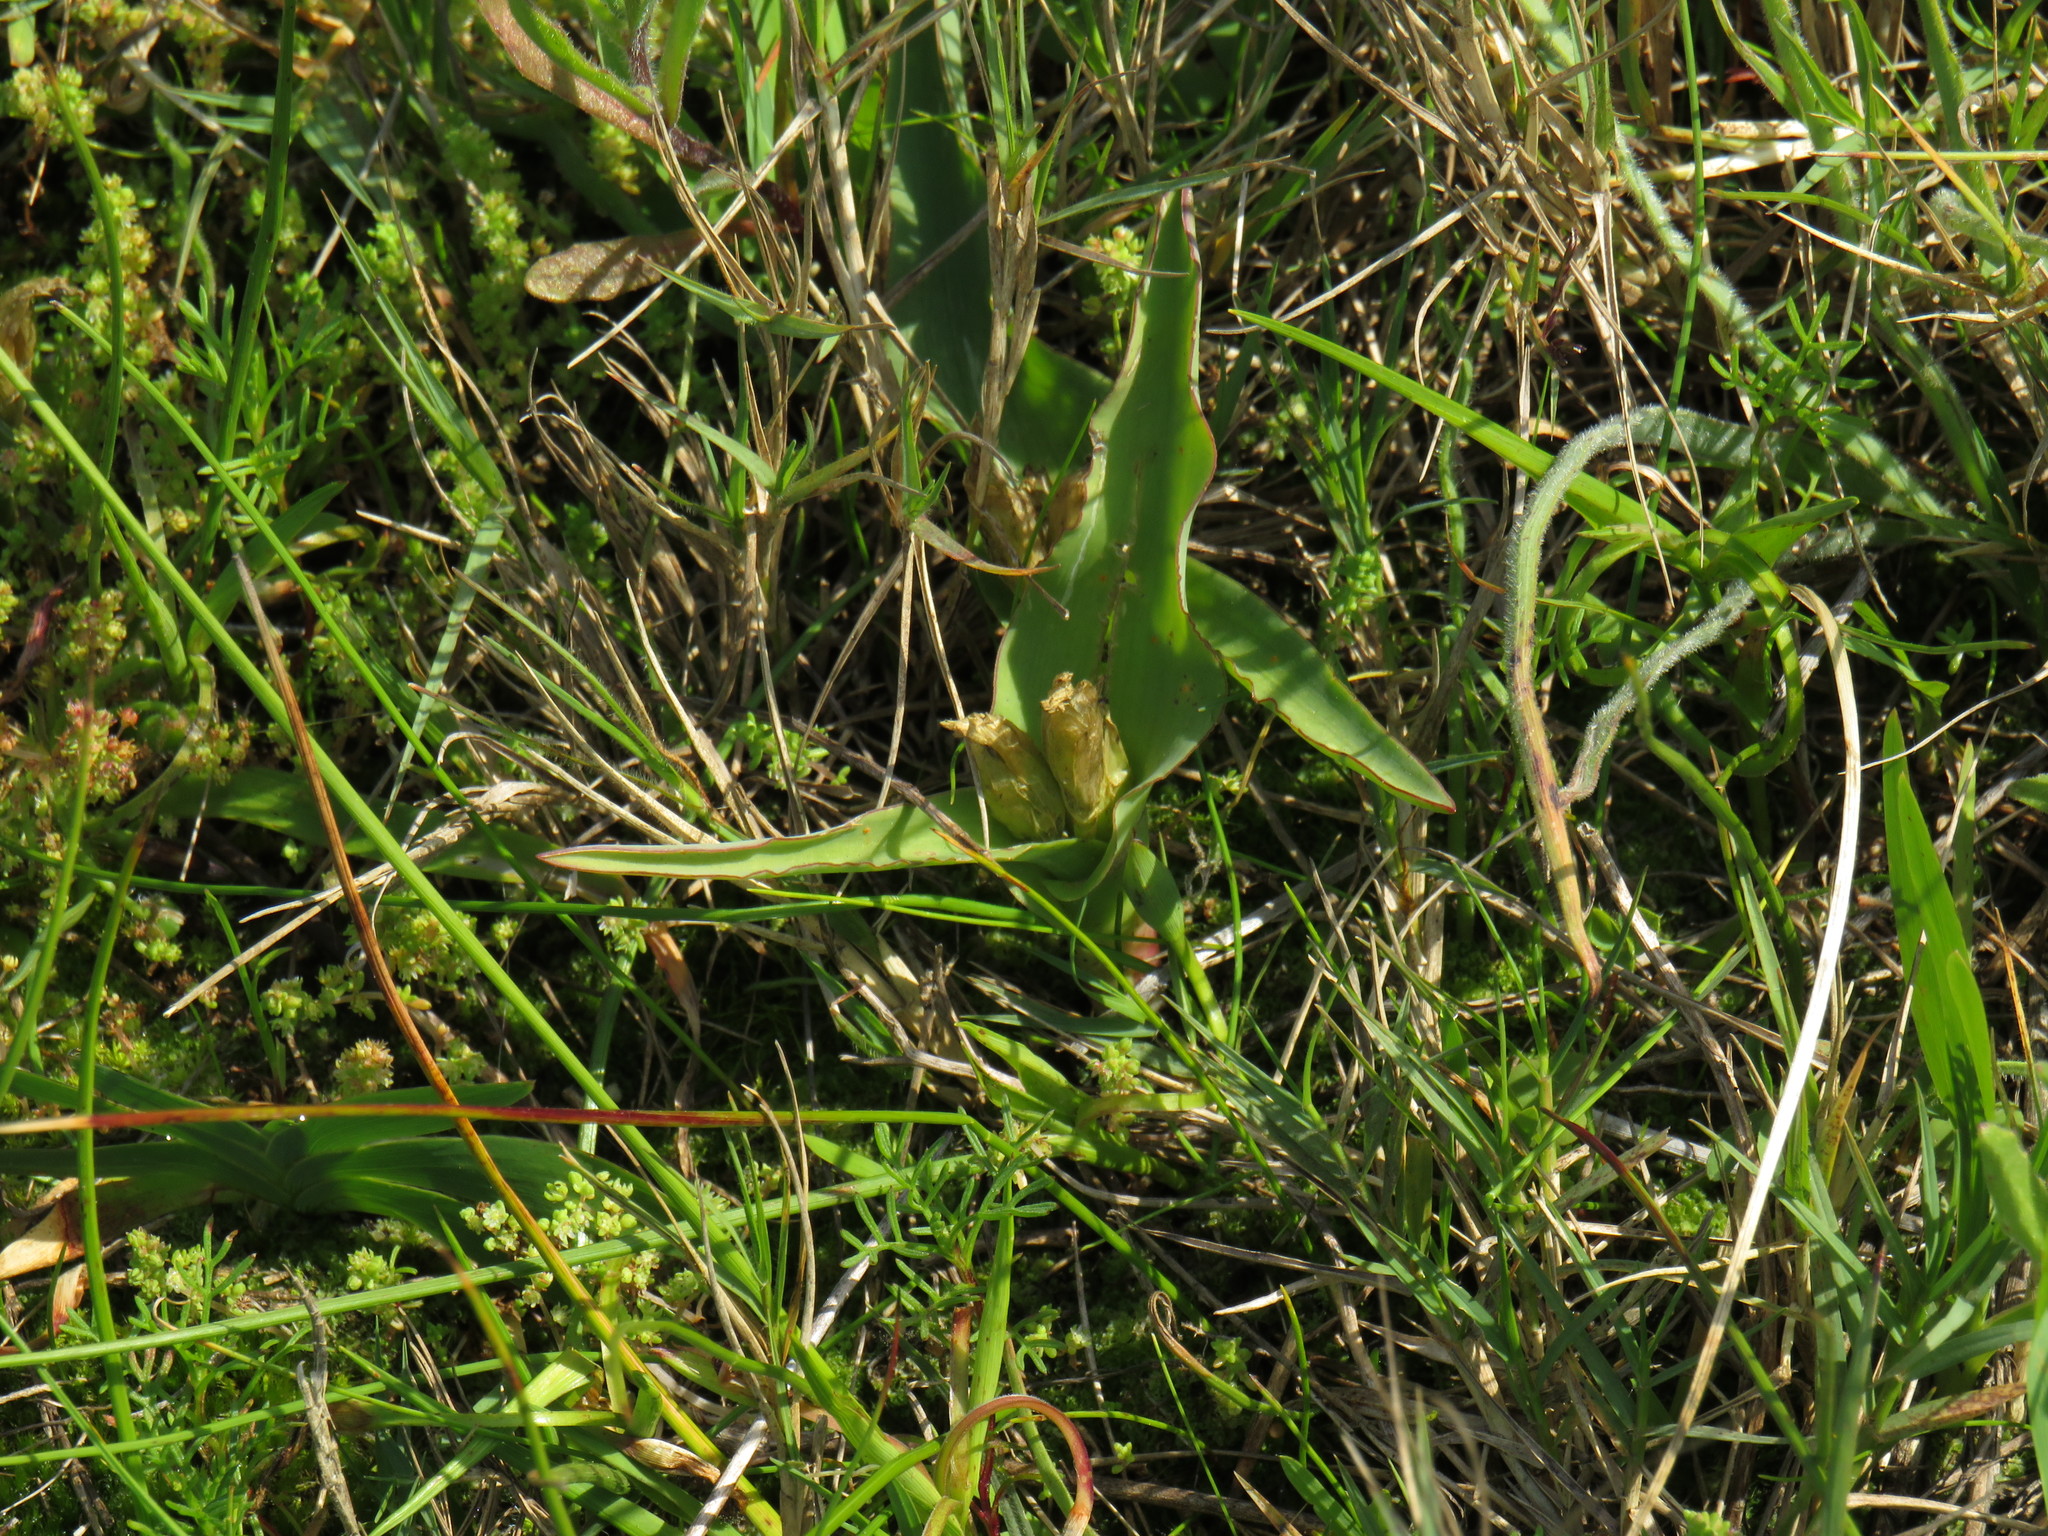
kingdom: Plantae
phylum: Tracheophyta
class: Liliopsida
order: Asparagales
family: Asparagaceae
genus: Lachenalia
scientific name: Lachenalia reflexa
